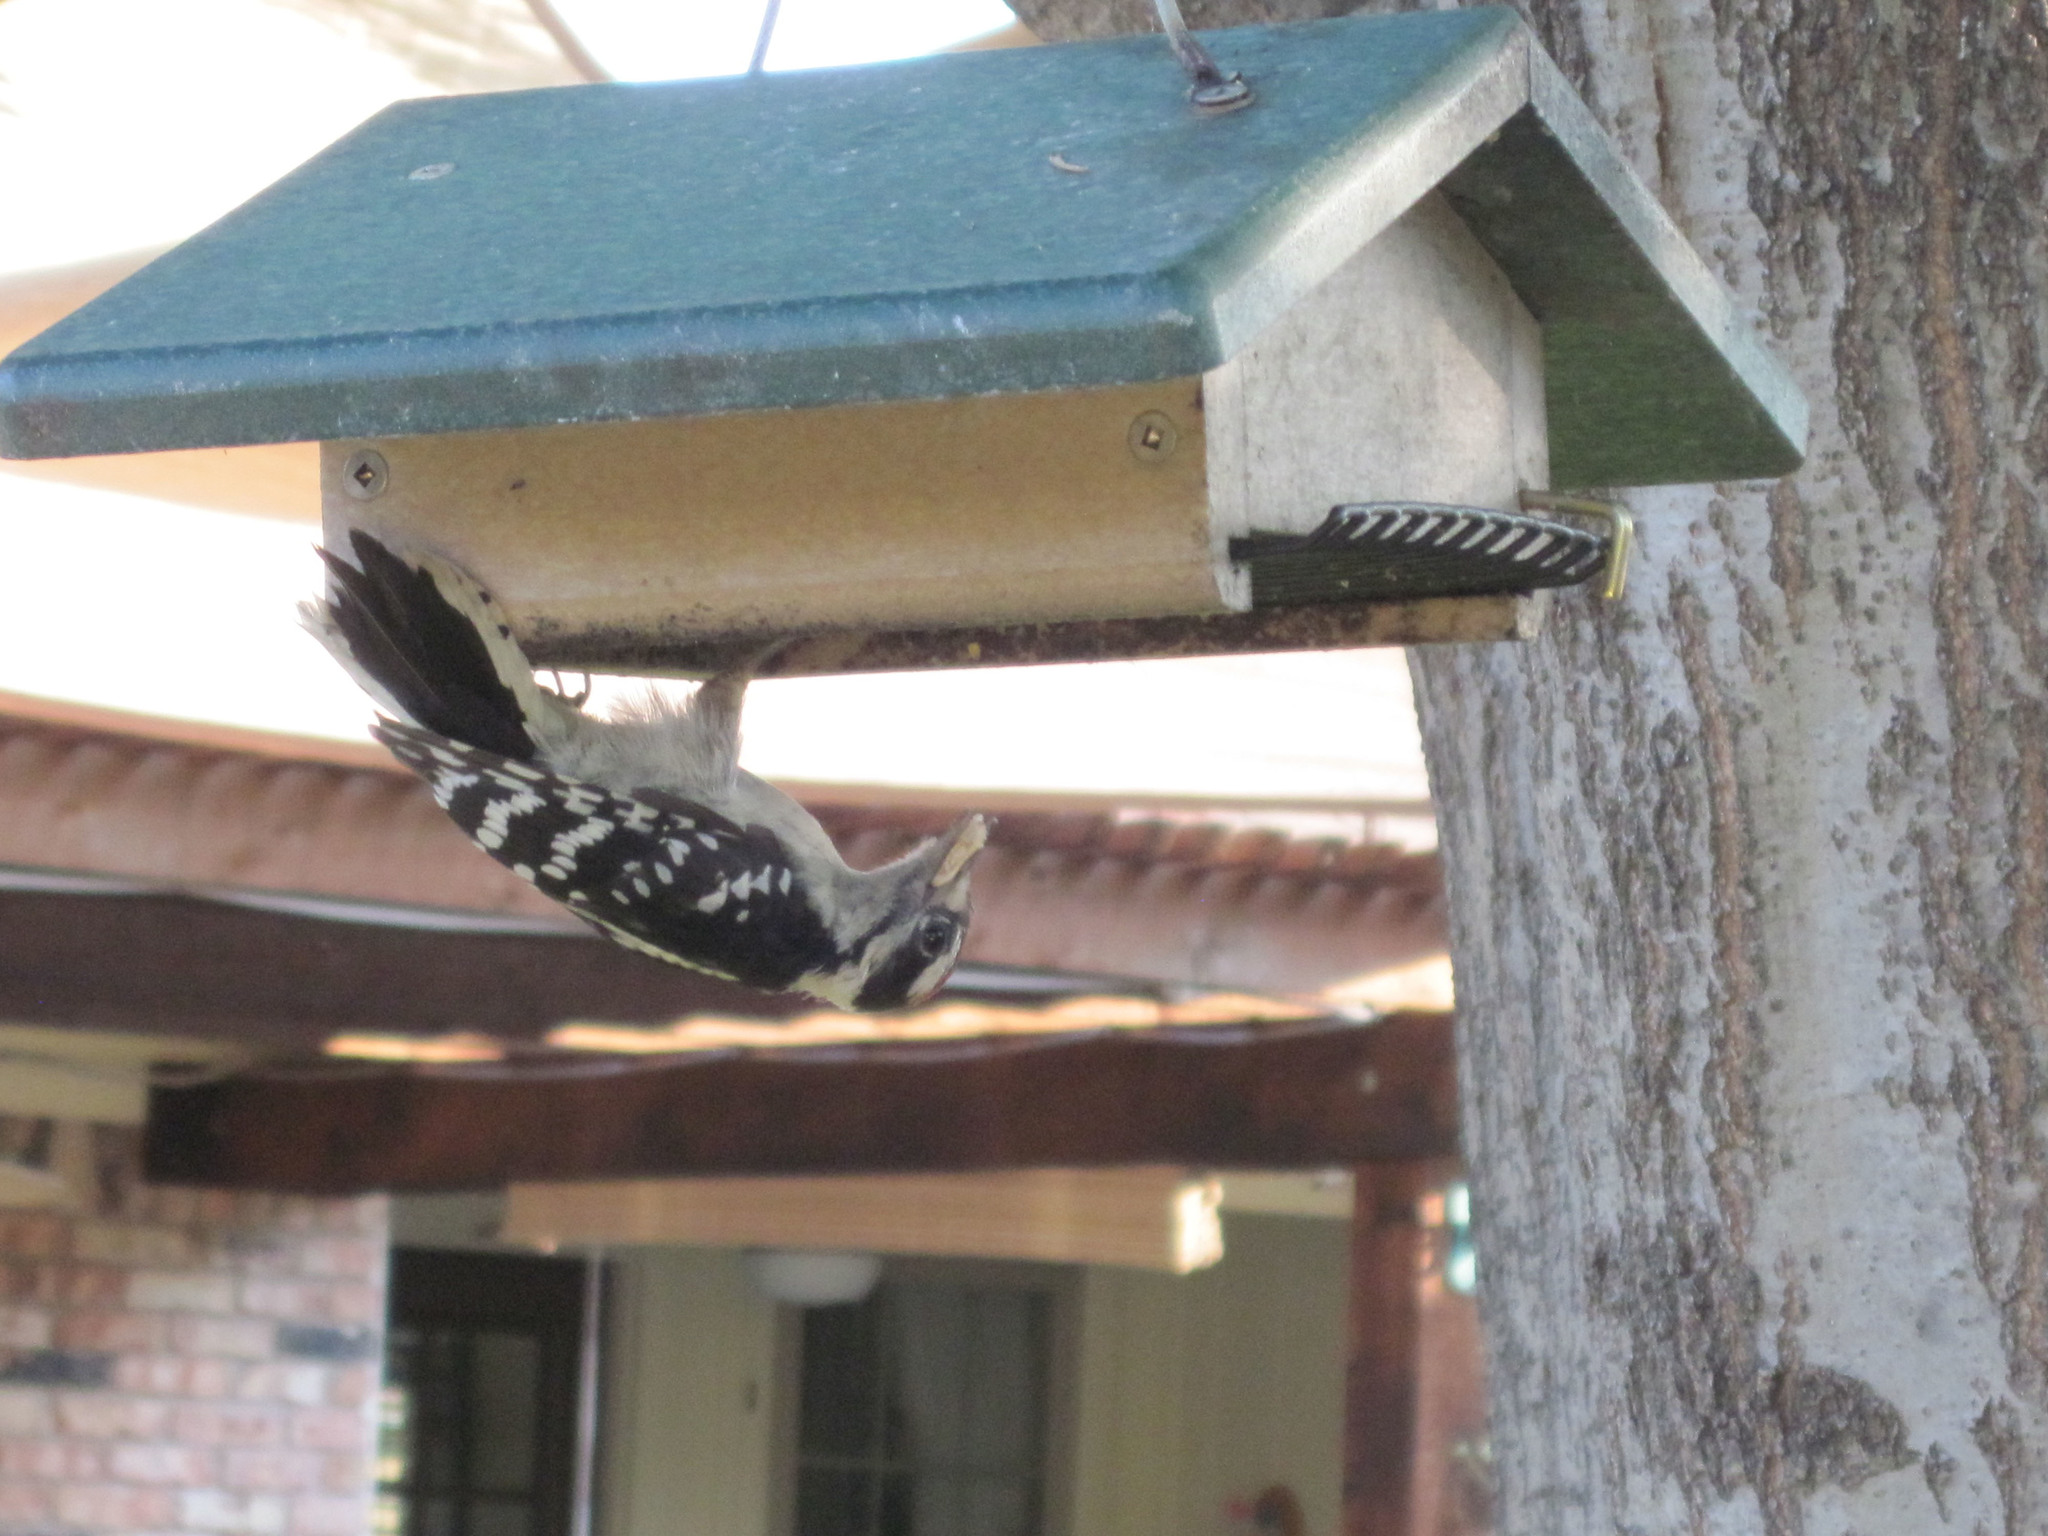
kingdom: Animalia
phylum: Chordata
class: Aves
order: Piciformes
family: Picidae
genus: Dryobates
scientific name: Dryobates pubescens
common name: Downy woodpecker
